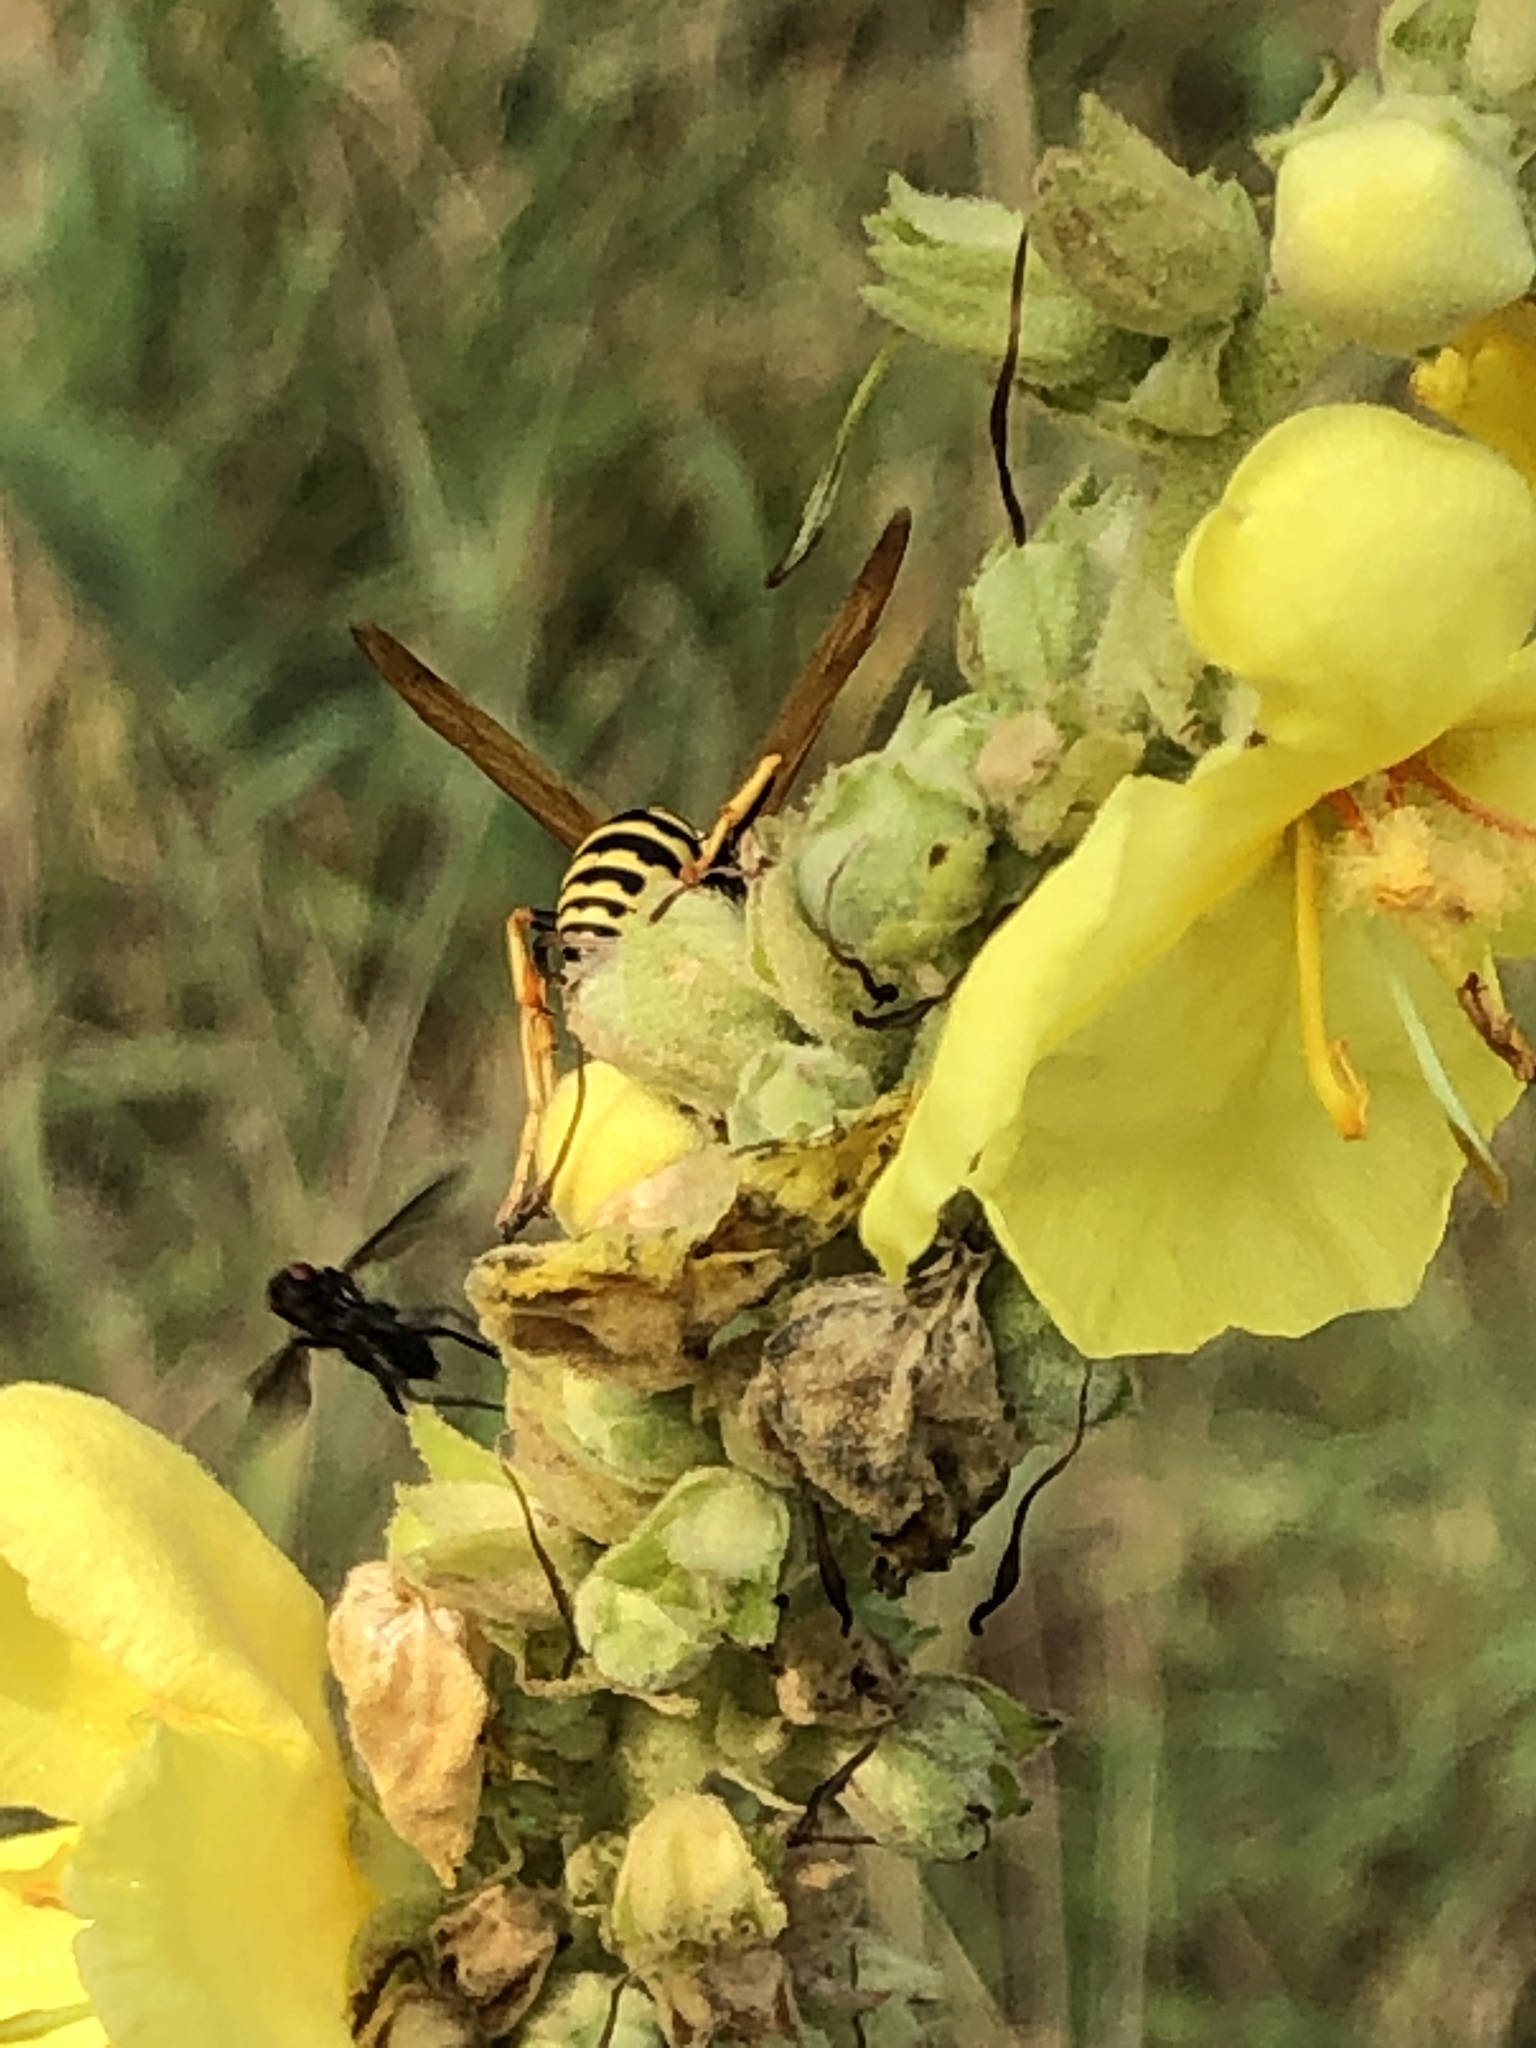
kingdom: Animalia
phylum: Arthropoda
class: Insecta
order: Hymenoptera
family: Eumenidae
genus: Polistes
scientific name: Polistes dominula
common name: Paper wasp
